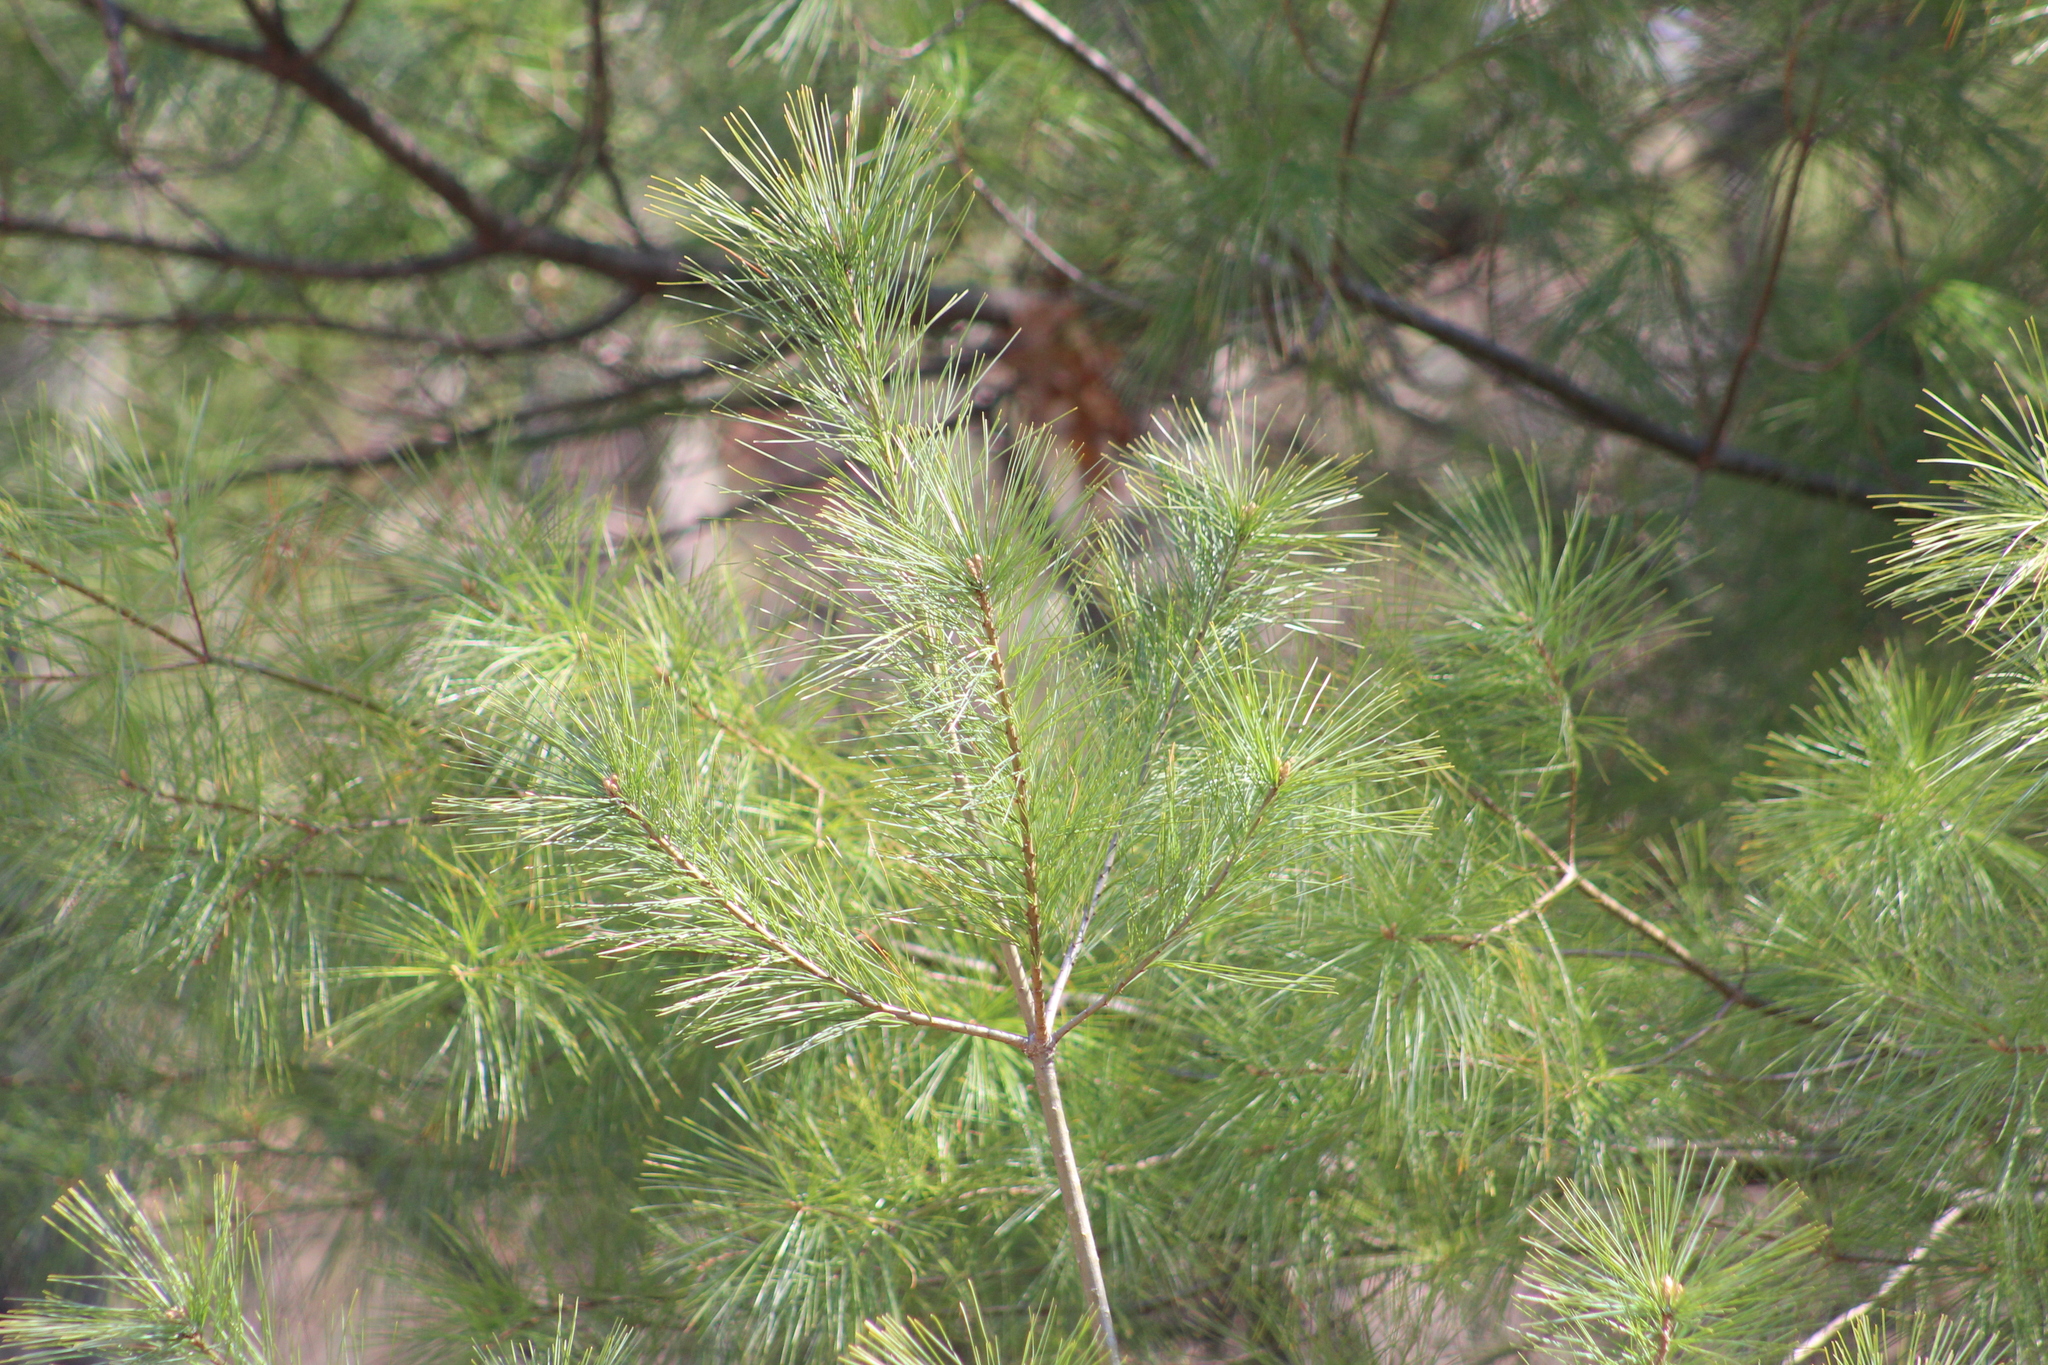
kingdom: Plantae
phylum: Tracheophyta
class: Pinopsida
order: Pinales
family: Pinaceae
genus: Pinus
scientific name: Pinus strobus
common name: Weymouth pine
